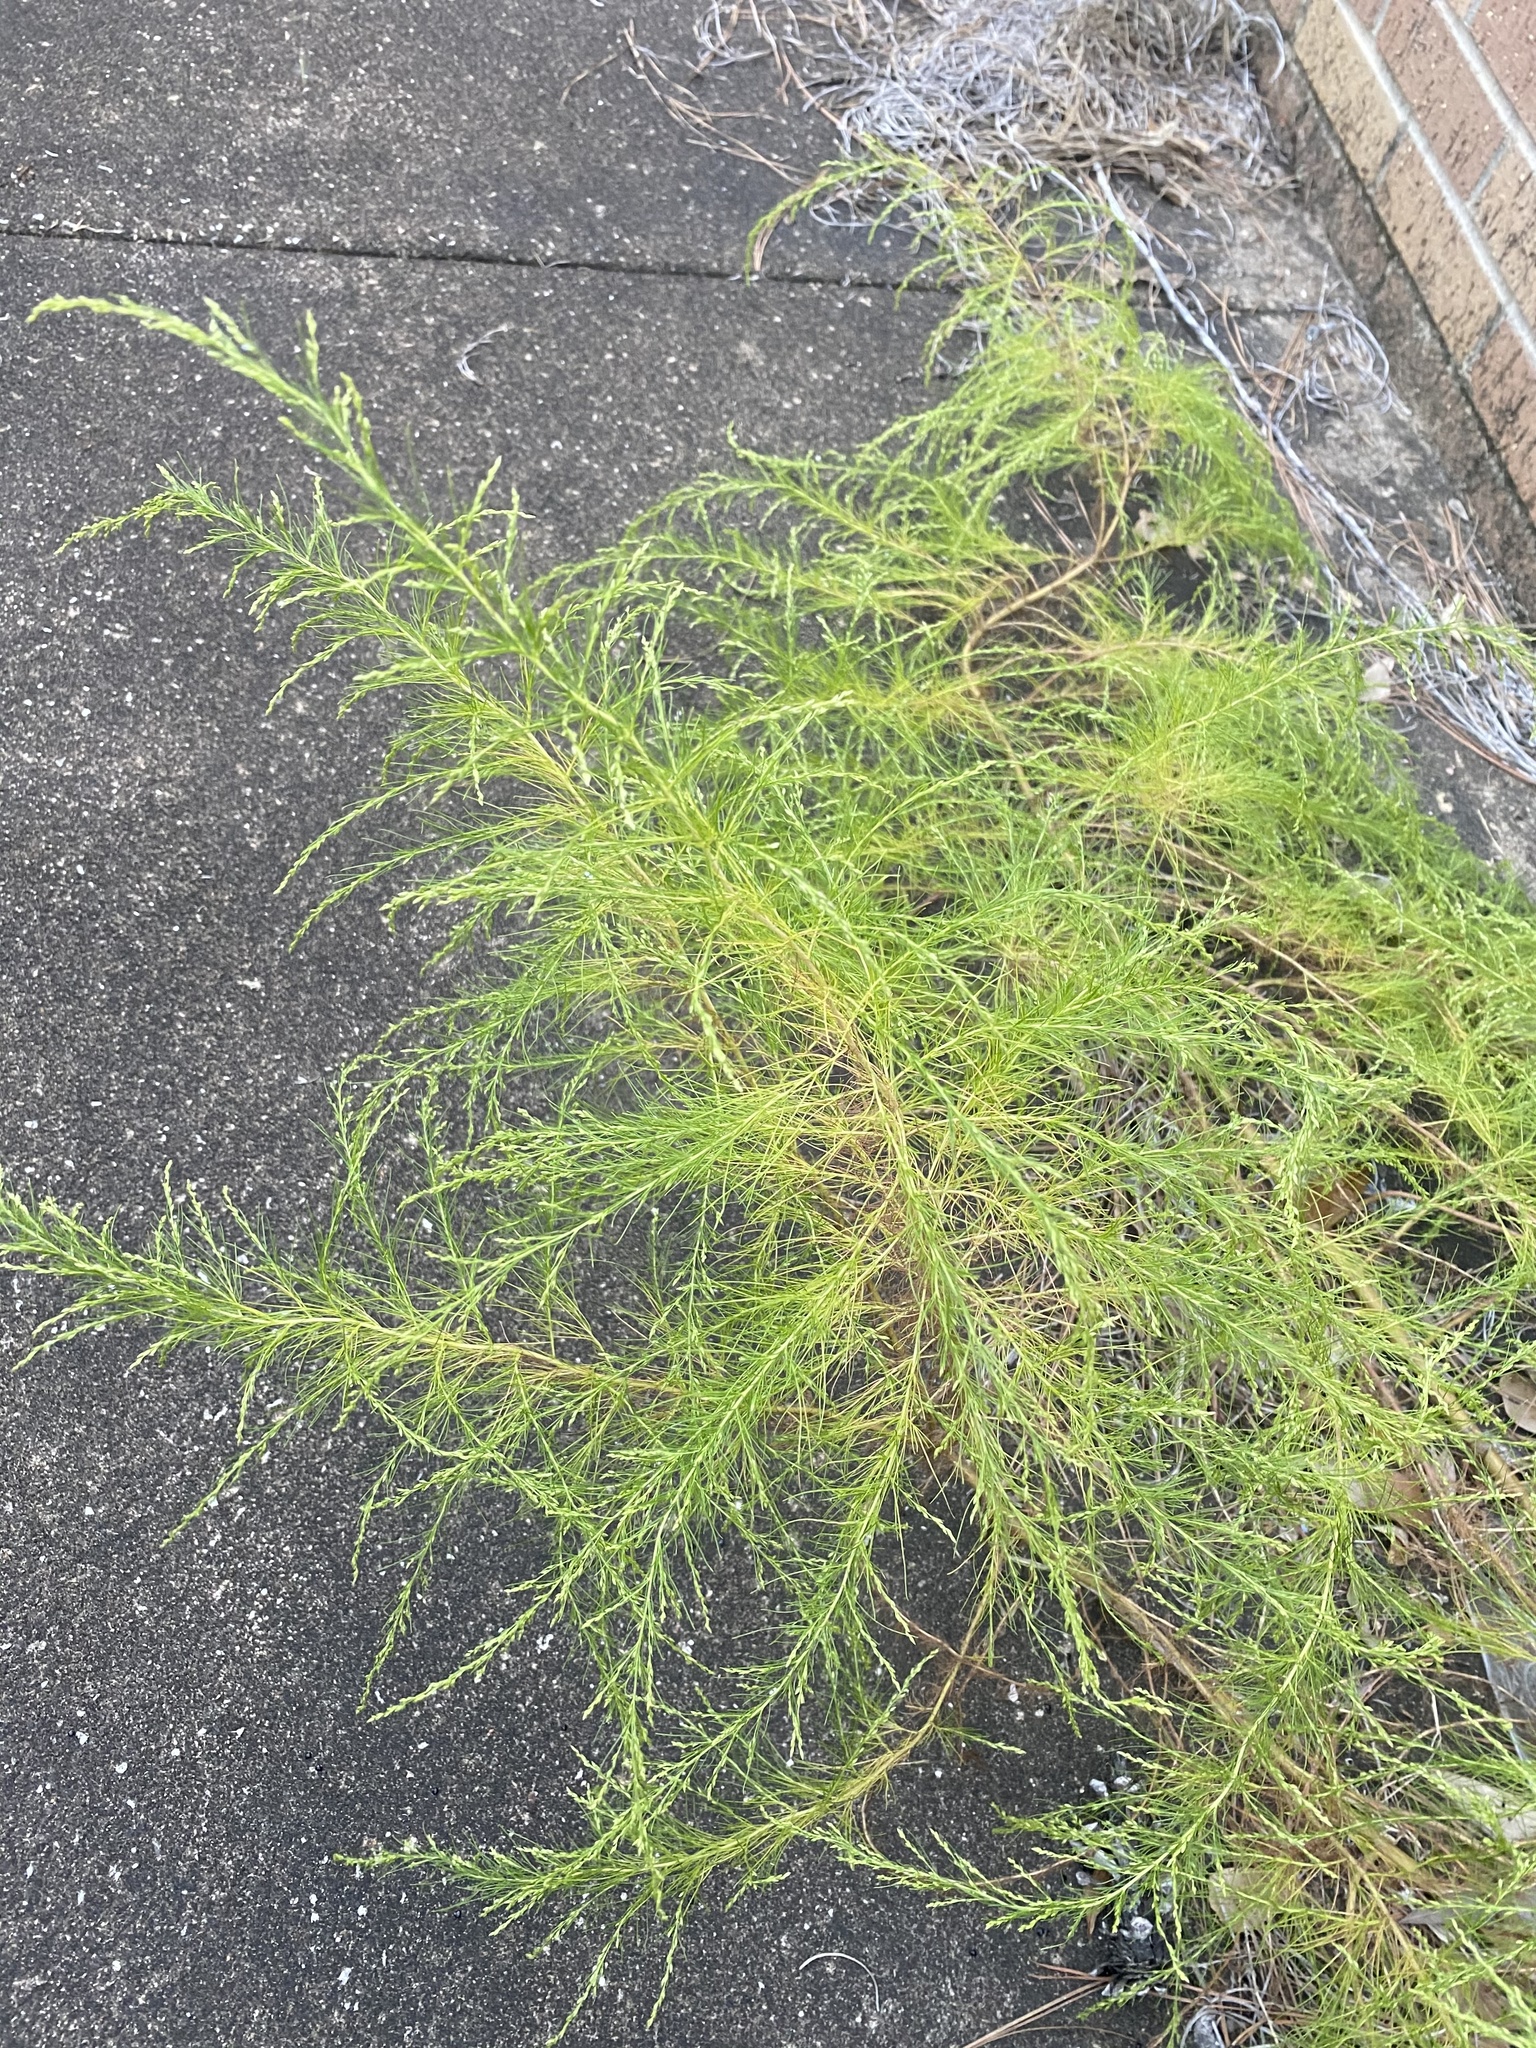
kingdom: Plantae
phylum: Tracheophyta
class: Magnoliopsida
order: Asterales
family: Asteraceae
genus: Eupatorium
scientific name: Eupatorium capillifolium
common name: Dog-fennel
